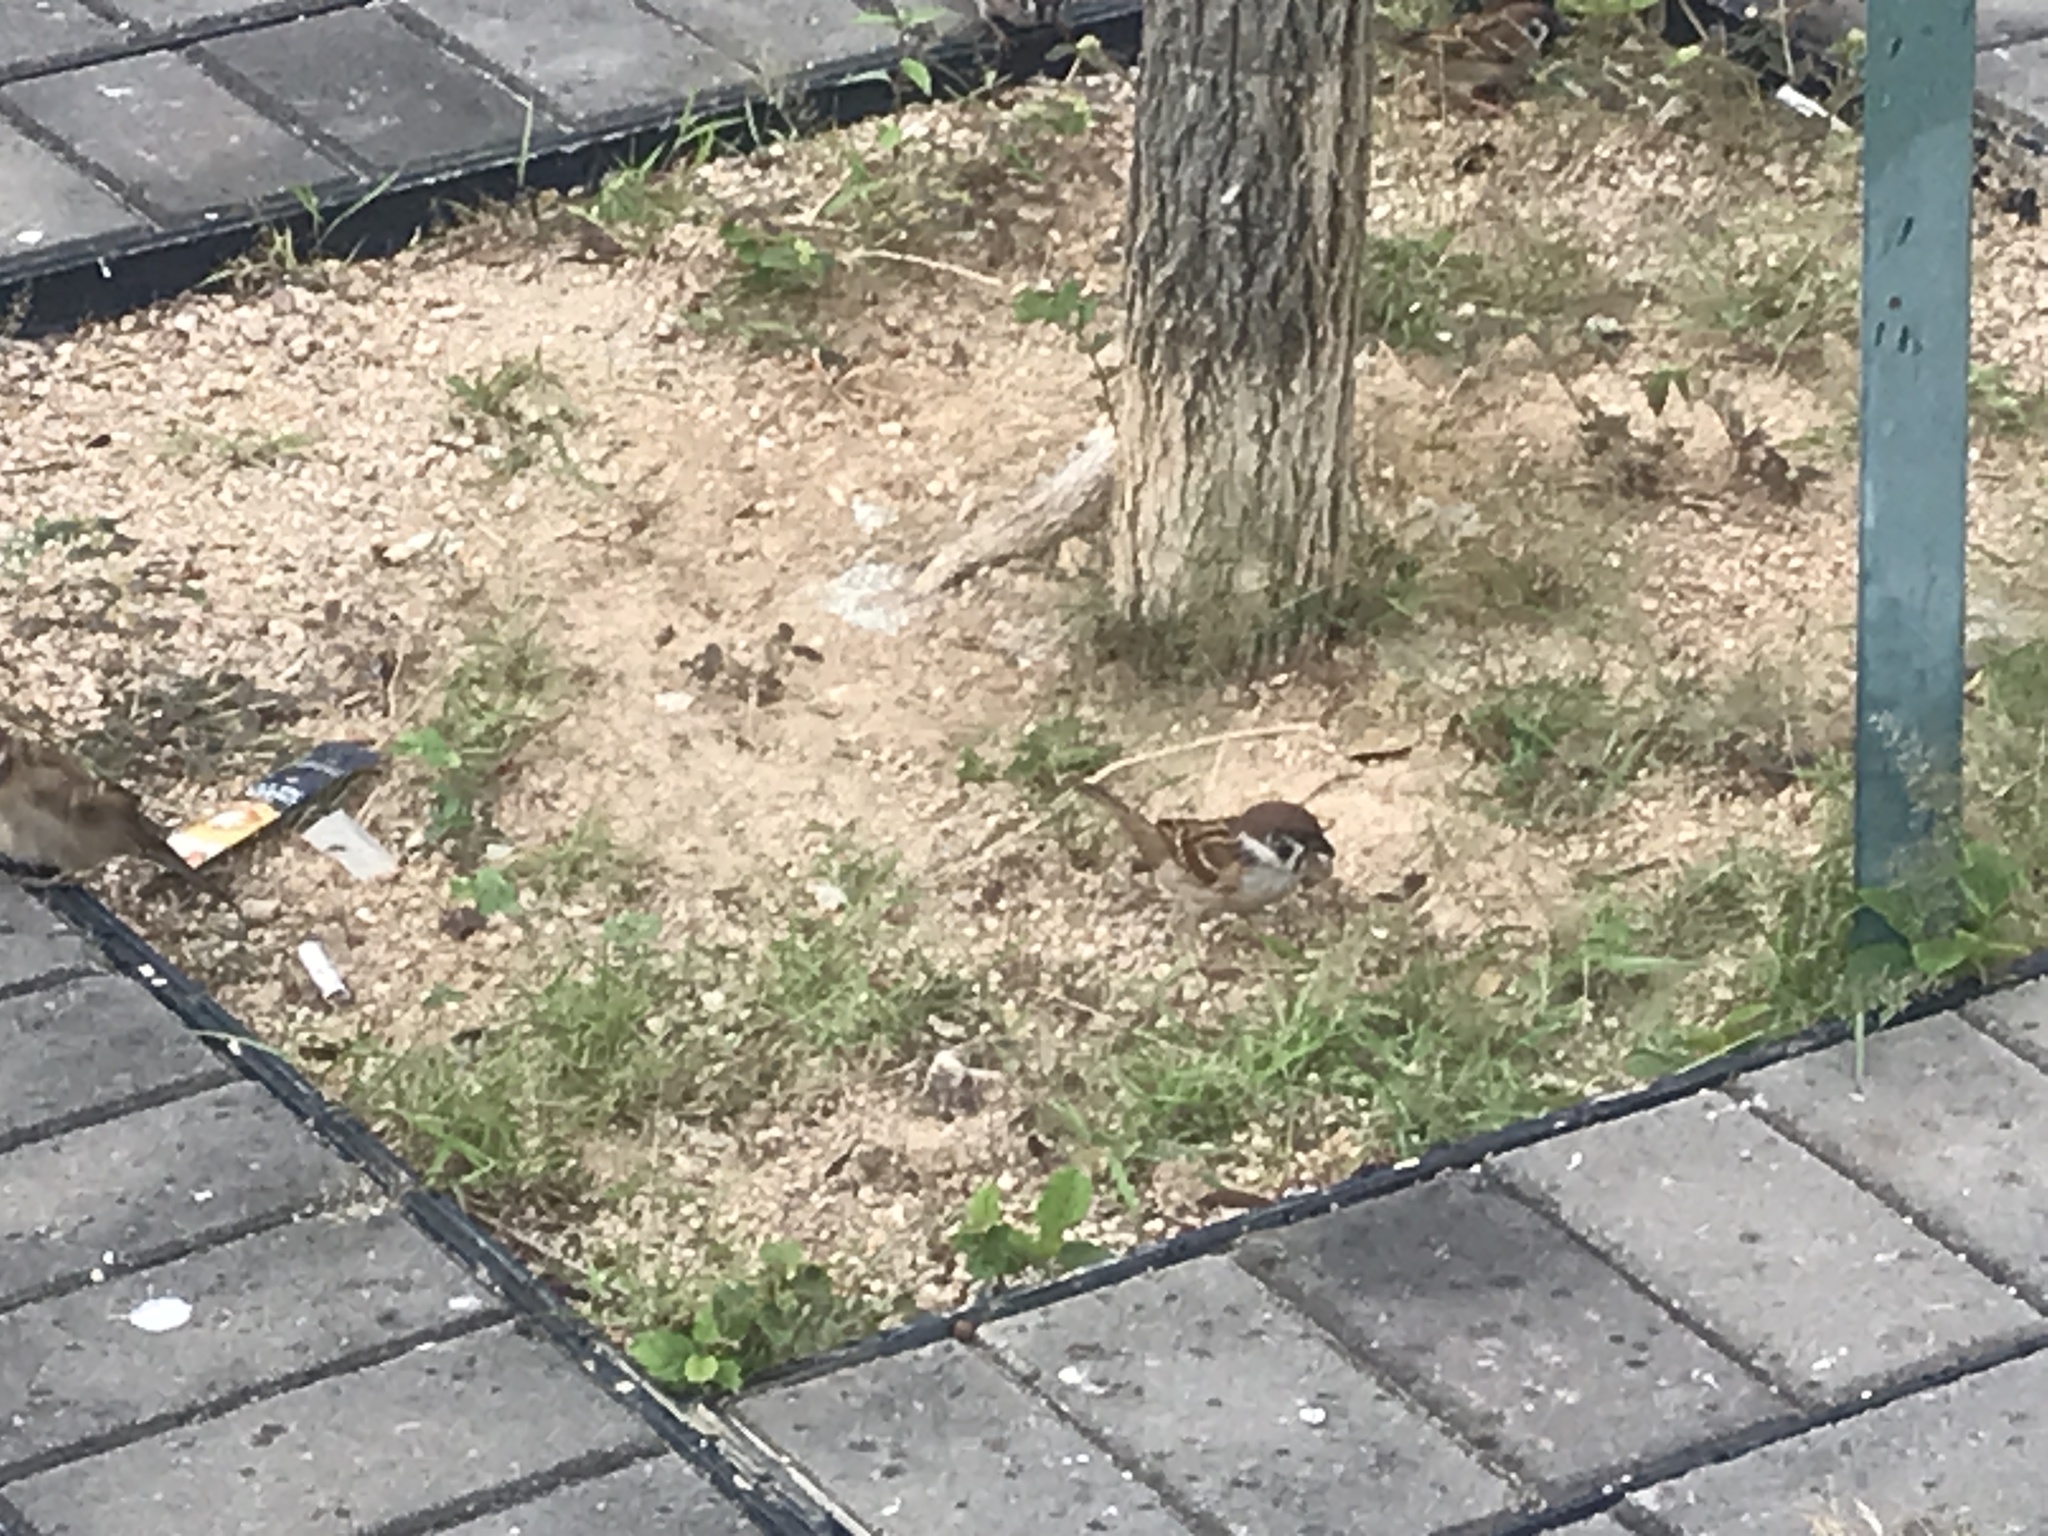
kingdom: Animalia
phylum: Chordata
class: Aves
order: Passeriformes
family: Passeridae
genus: Passer
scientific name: Passer montanus
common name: Eurasian tree sparrow
